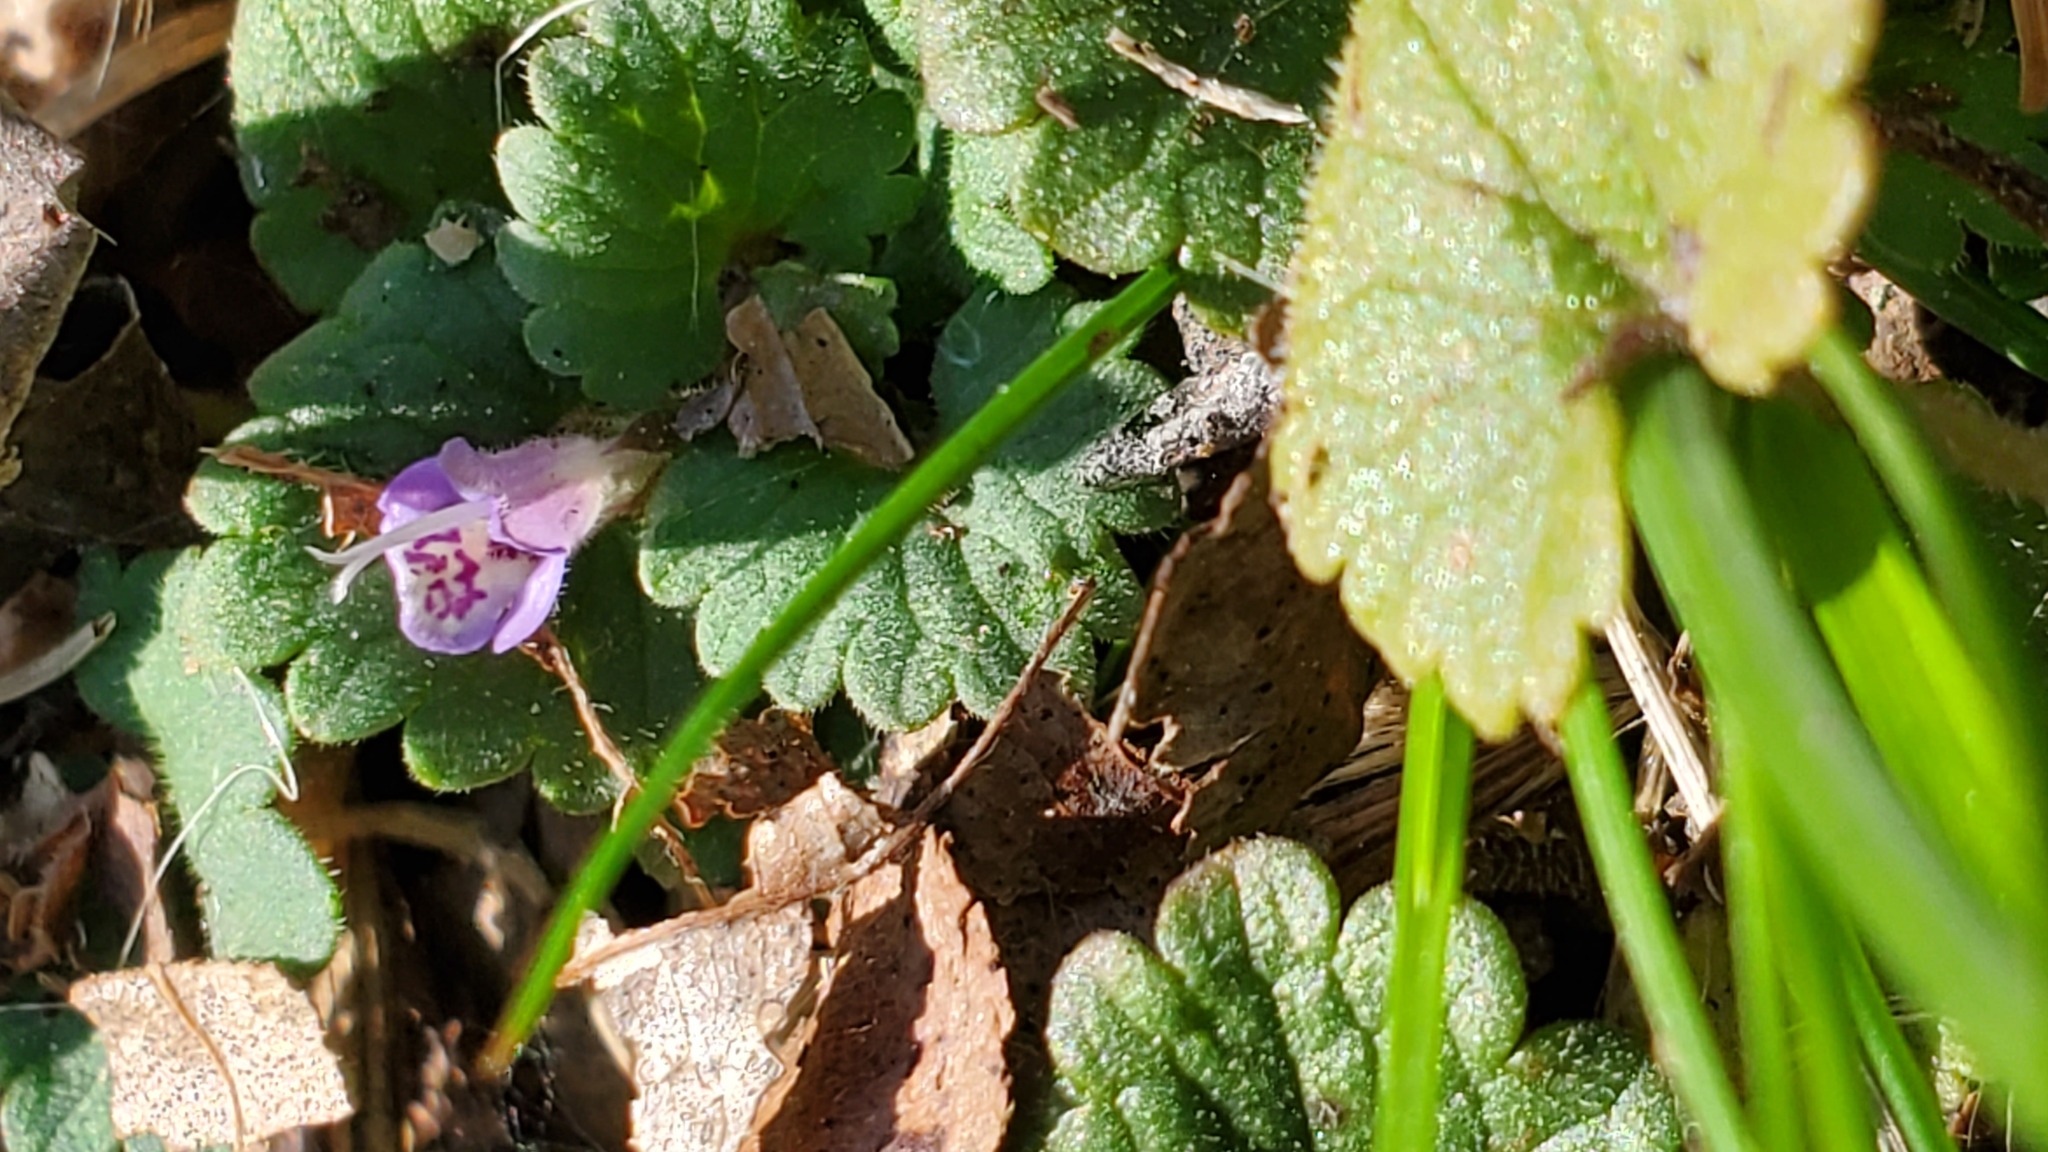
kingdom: Plantae
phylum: Tracheophyta
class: Magnoliopsida
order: Lamiales
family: Lamiaceae
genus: Glechoma
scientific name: Glechoma hederacea
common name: Ground ivy
